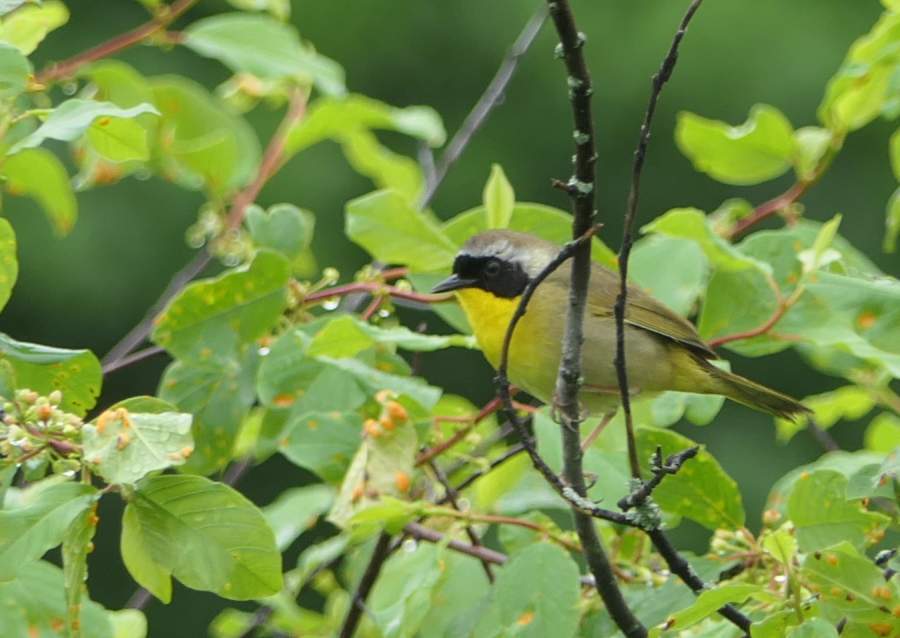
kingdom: Animalia
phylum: Chordata
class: Aves
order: Passeriformes
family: Parulidae
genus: Geothlypis
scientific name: Geothlypis trichas
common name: Common yellowthroat
